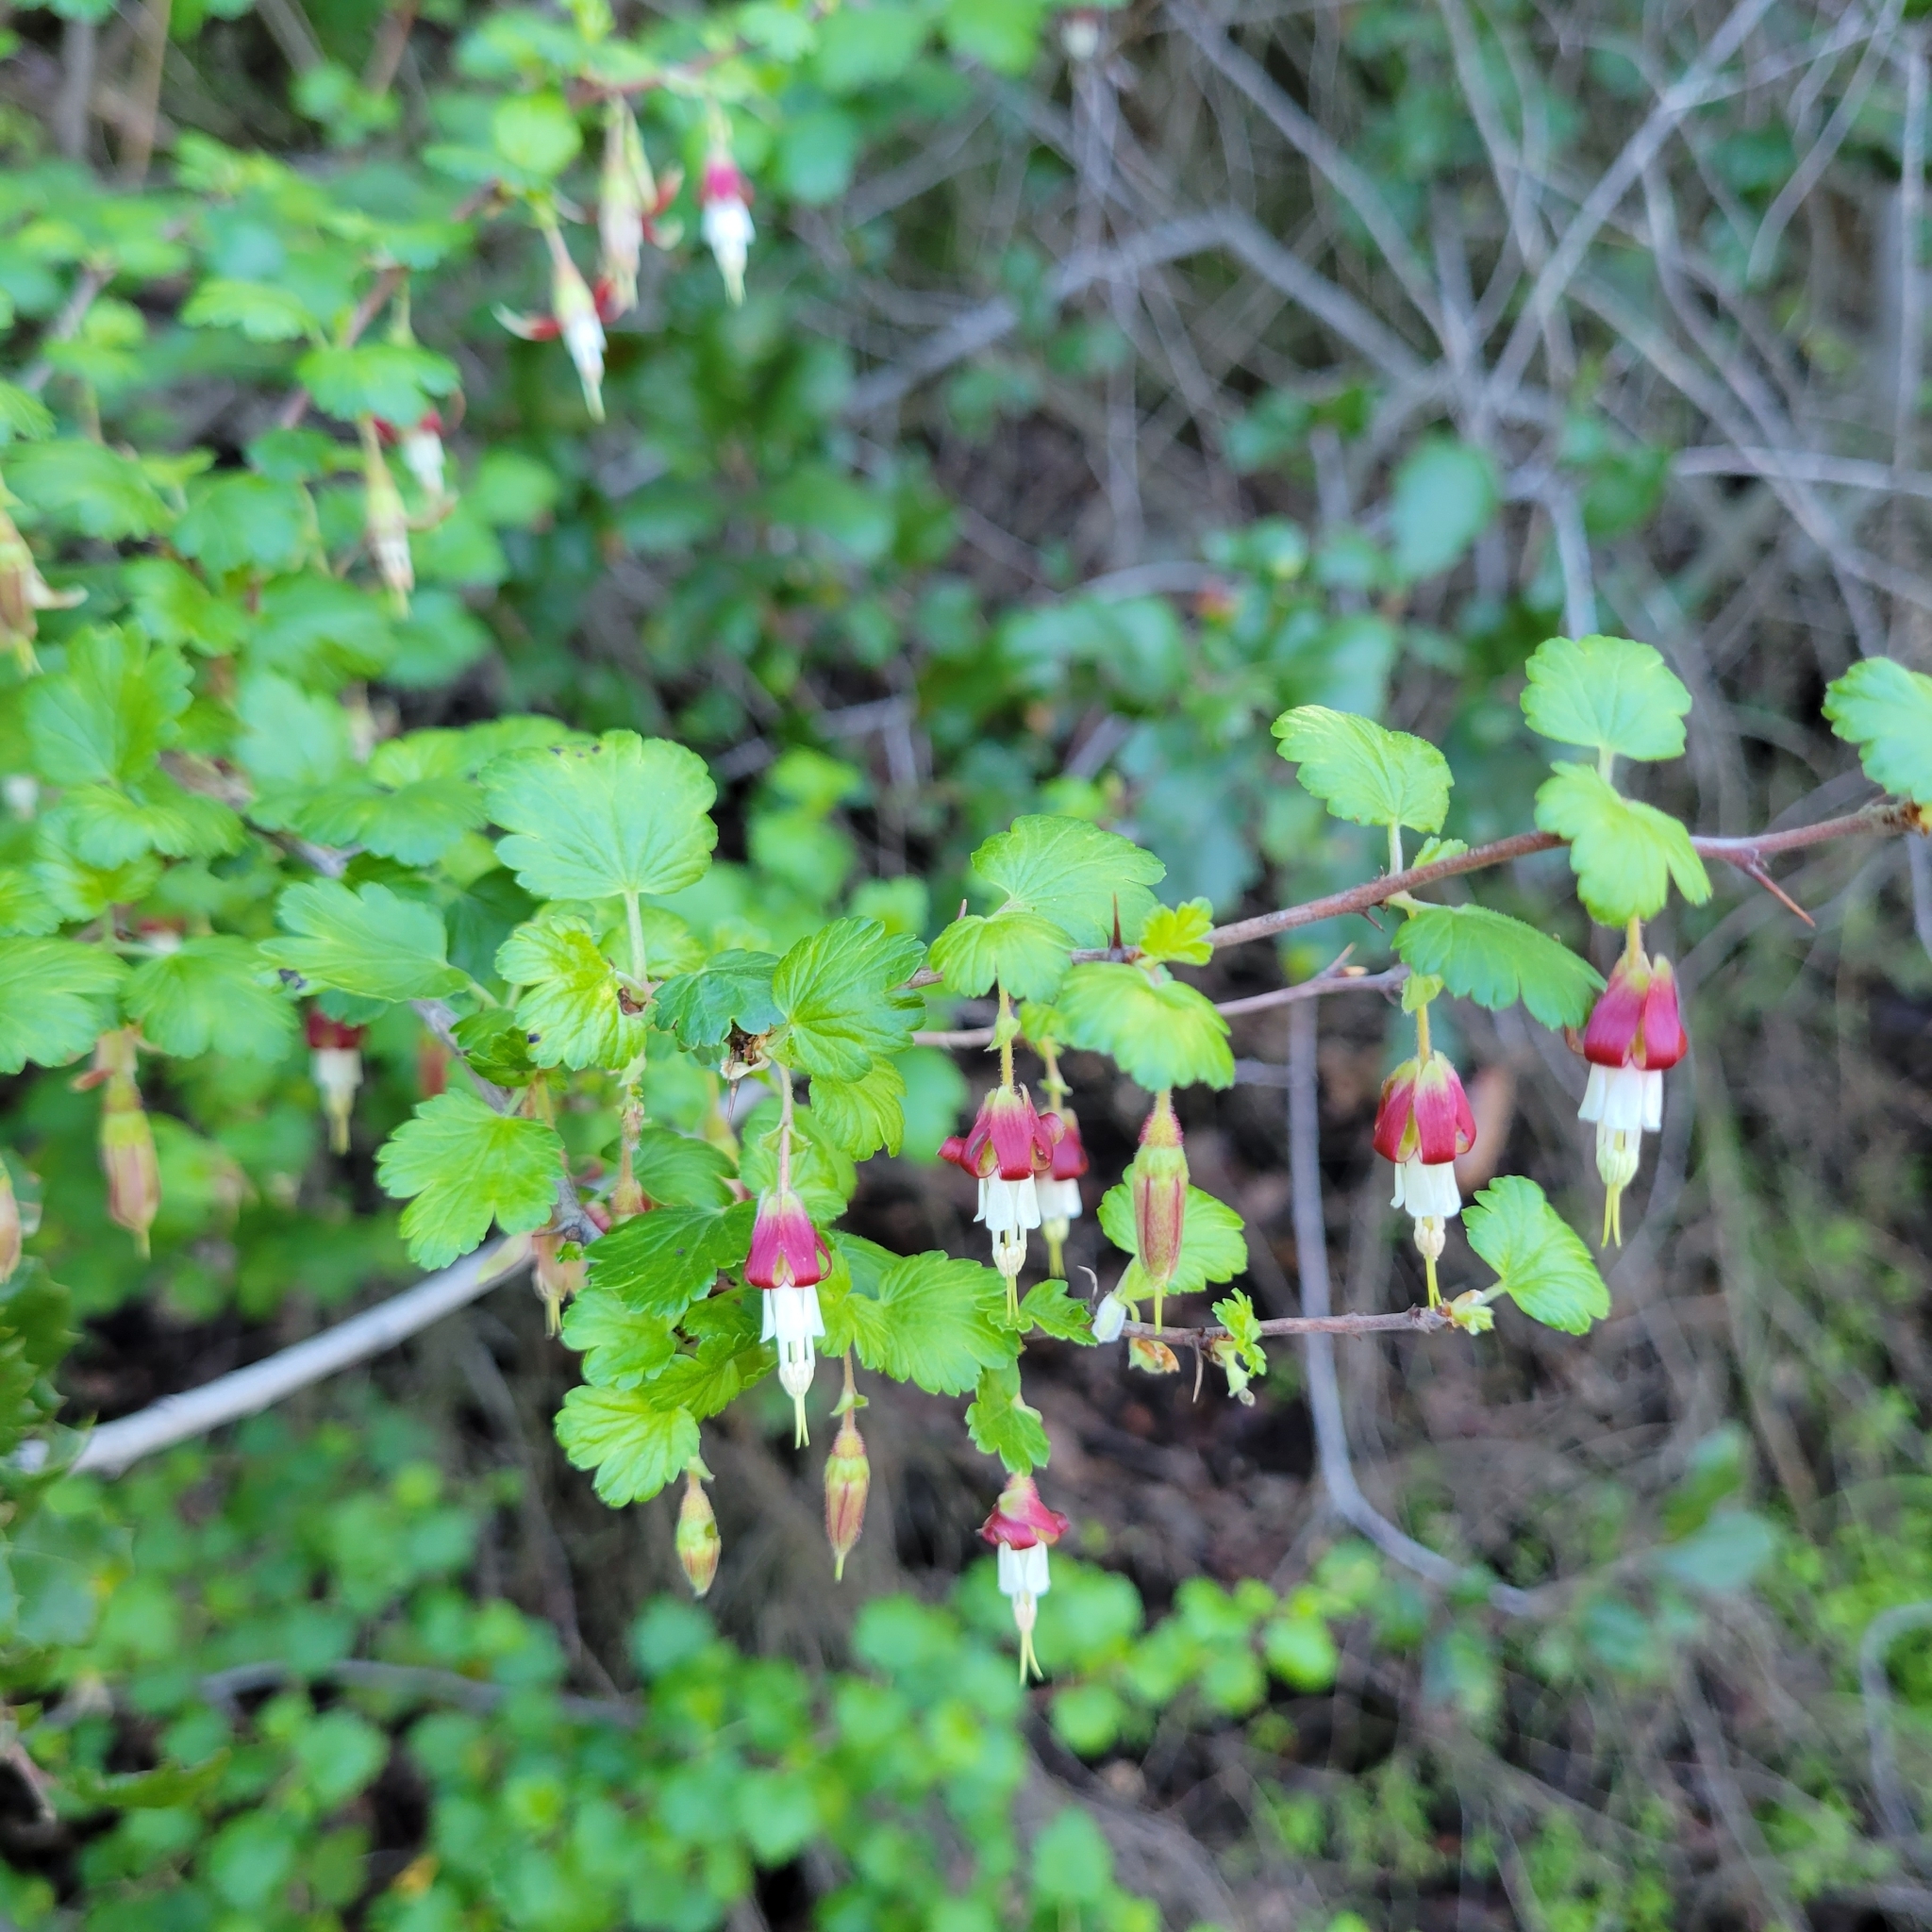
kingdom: Plantae
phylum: Tracheophyta
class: Magnoliopsida
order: Saxifragales
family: Grossulariaceae
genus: Ribes
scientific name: Ribes californicum
